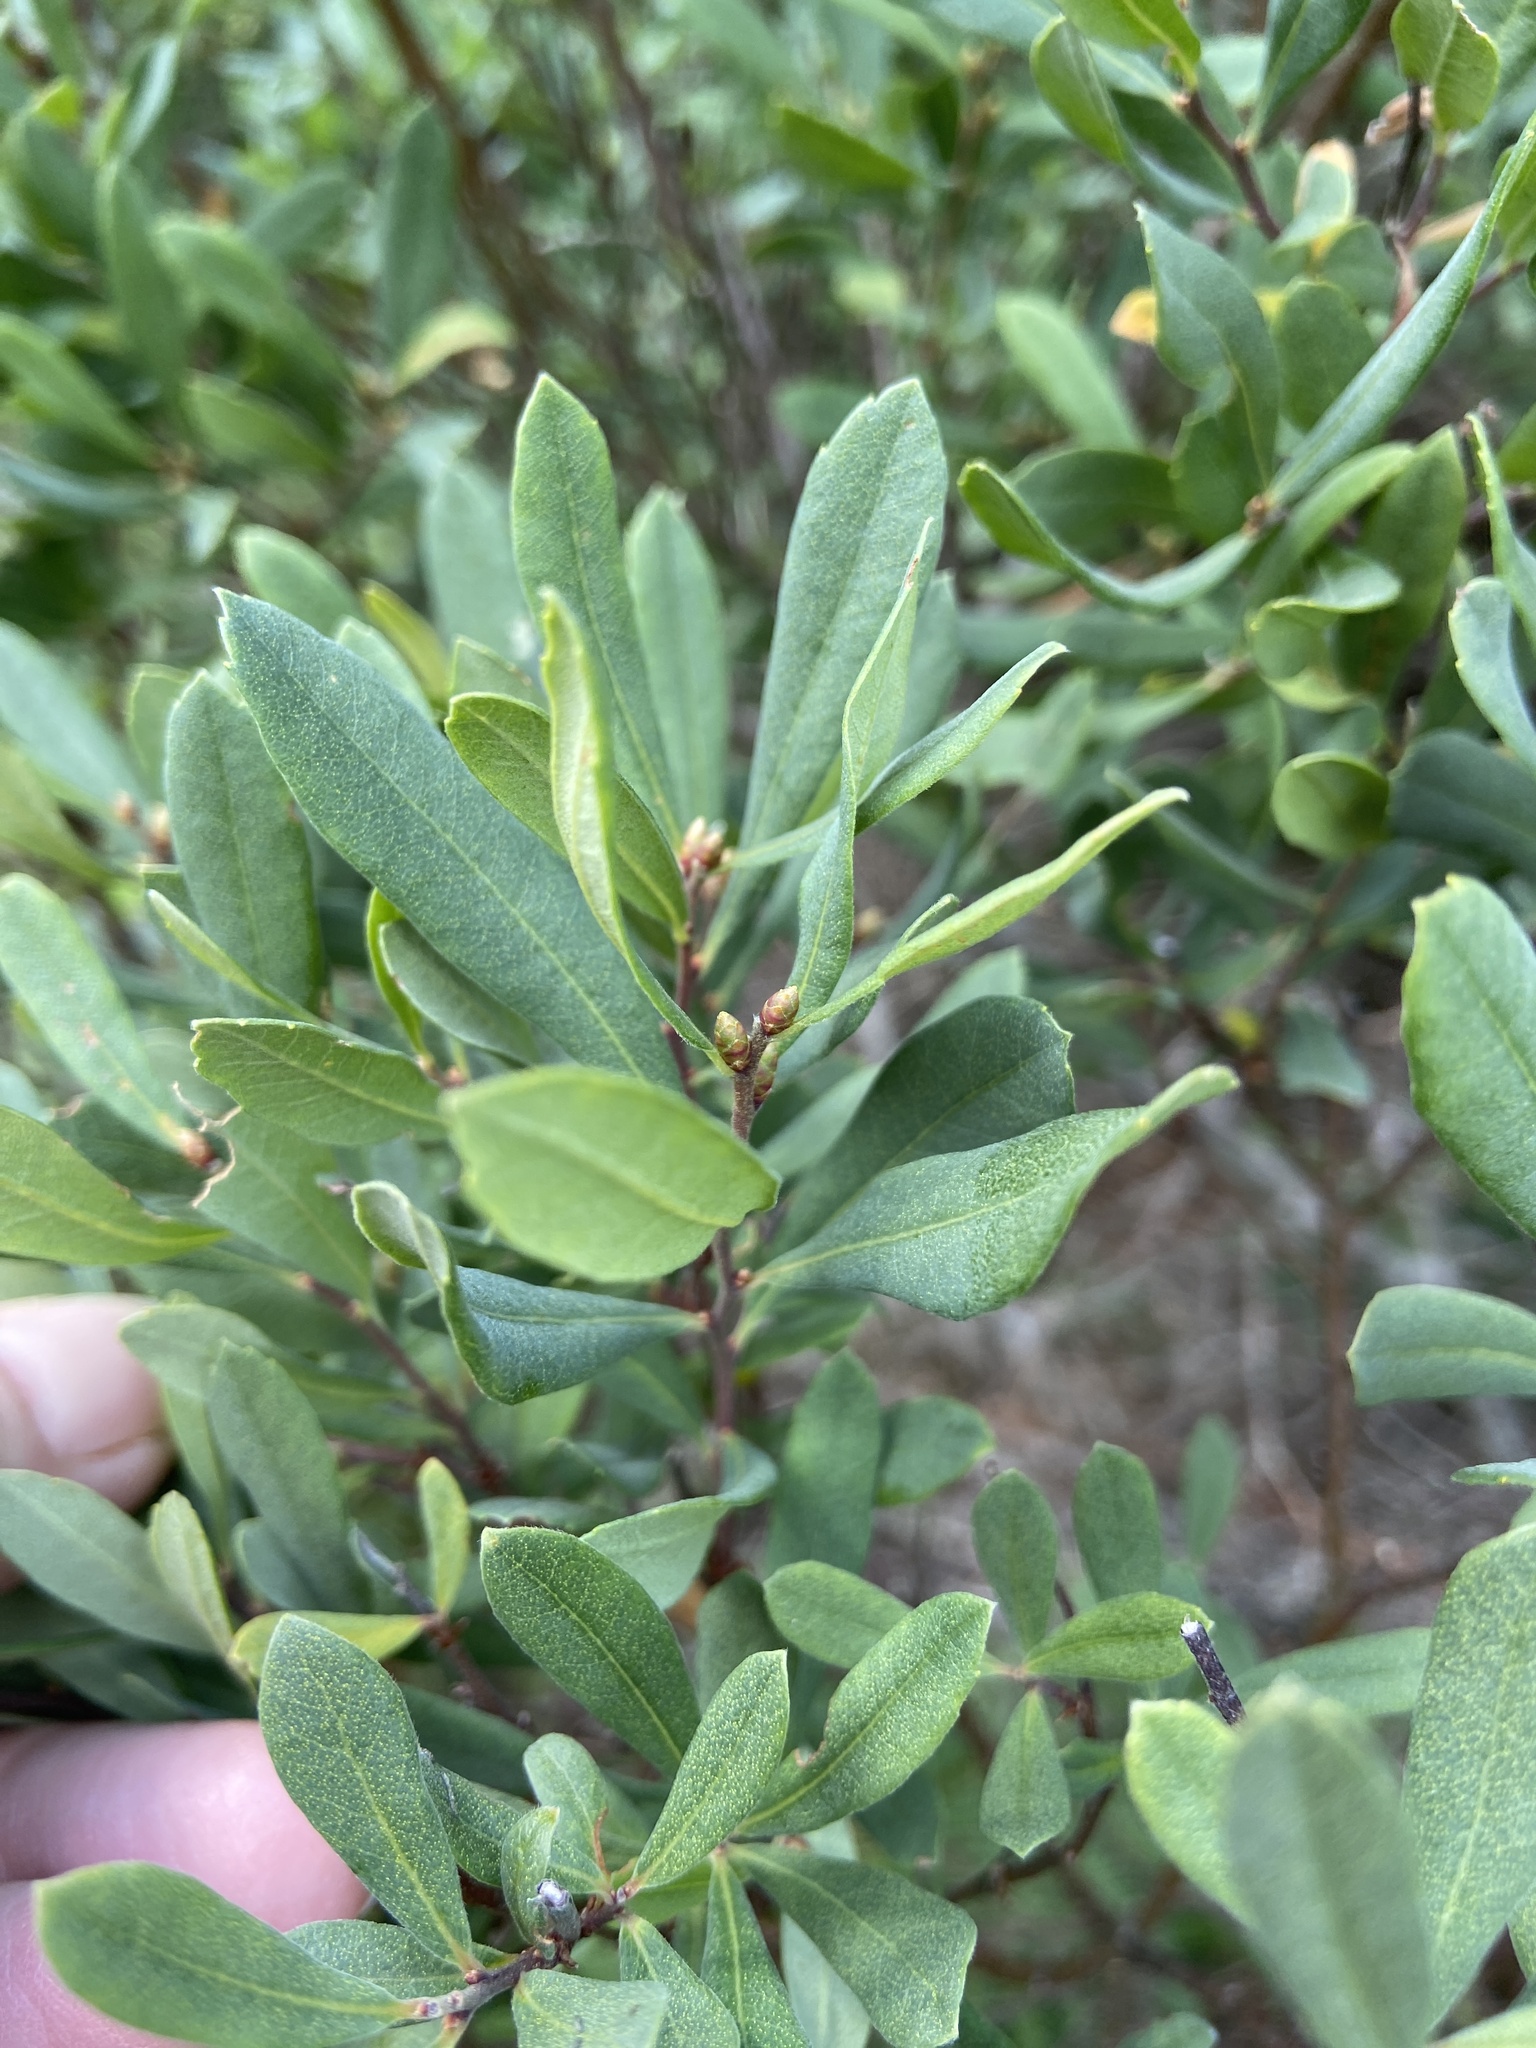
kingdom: Plantae
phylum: Tracheophyta
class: Magnoliopsida
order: Fagales
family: Myricaceae
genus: Myrica
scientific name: Myrica gale
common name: Sweet gale
